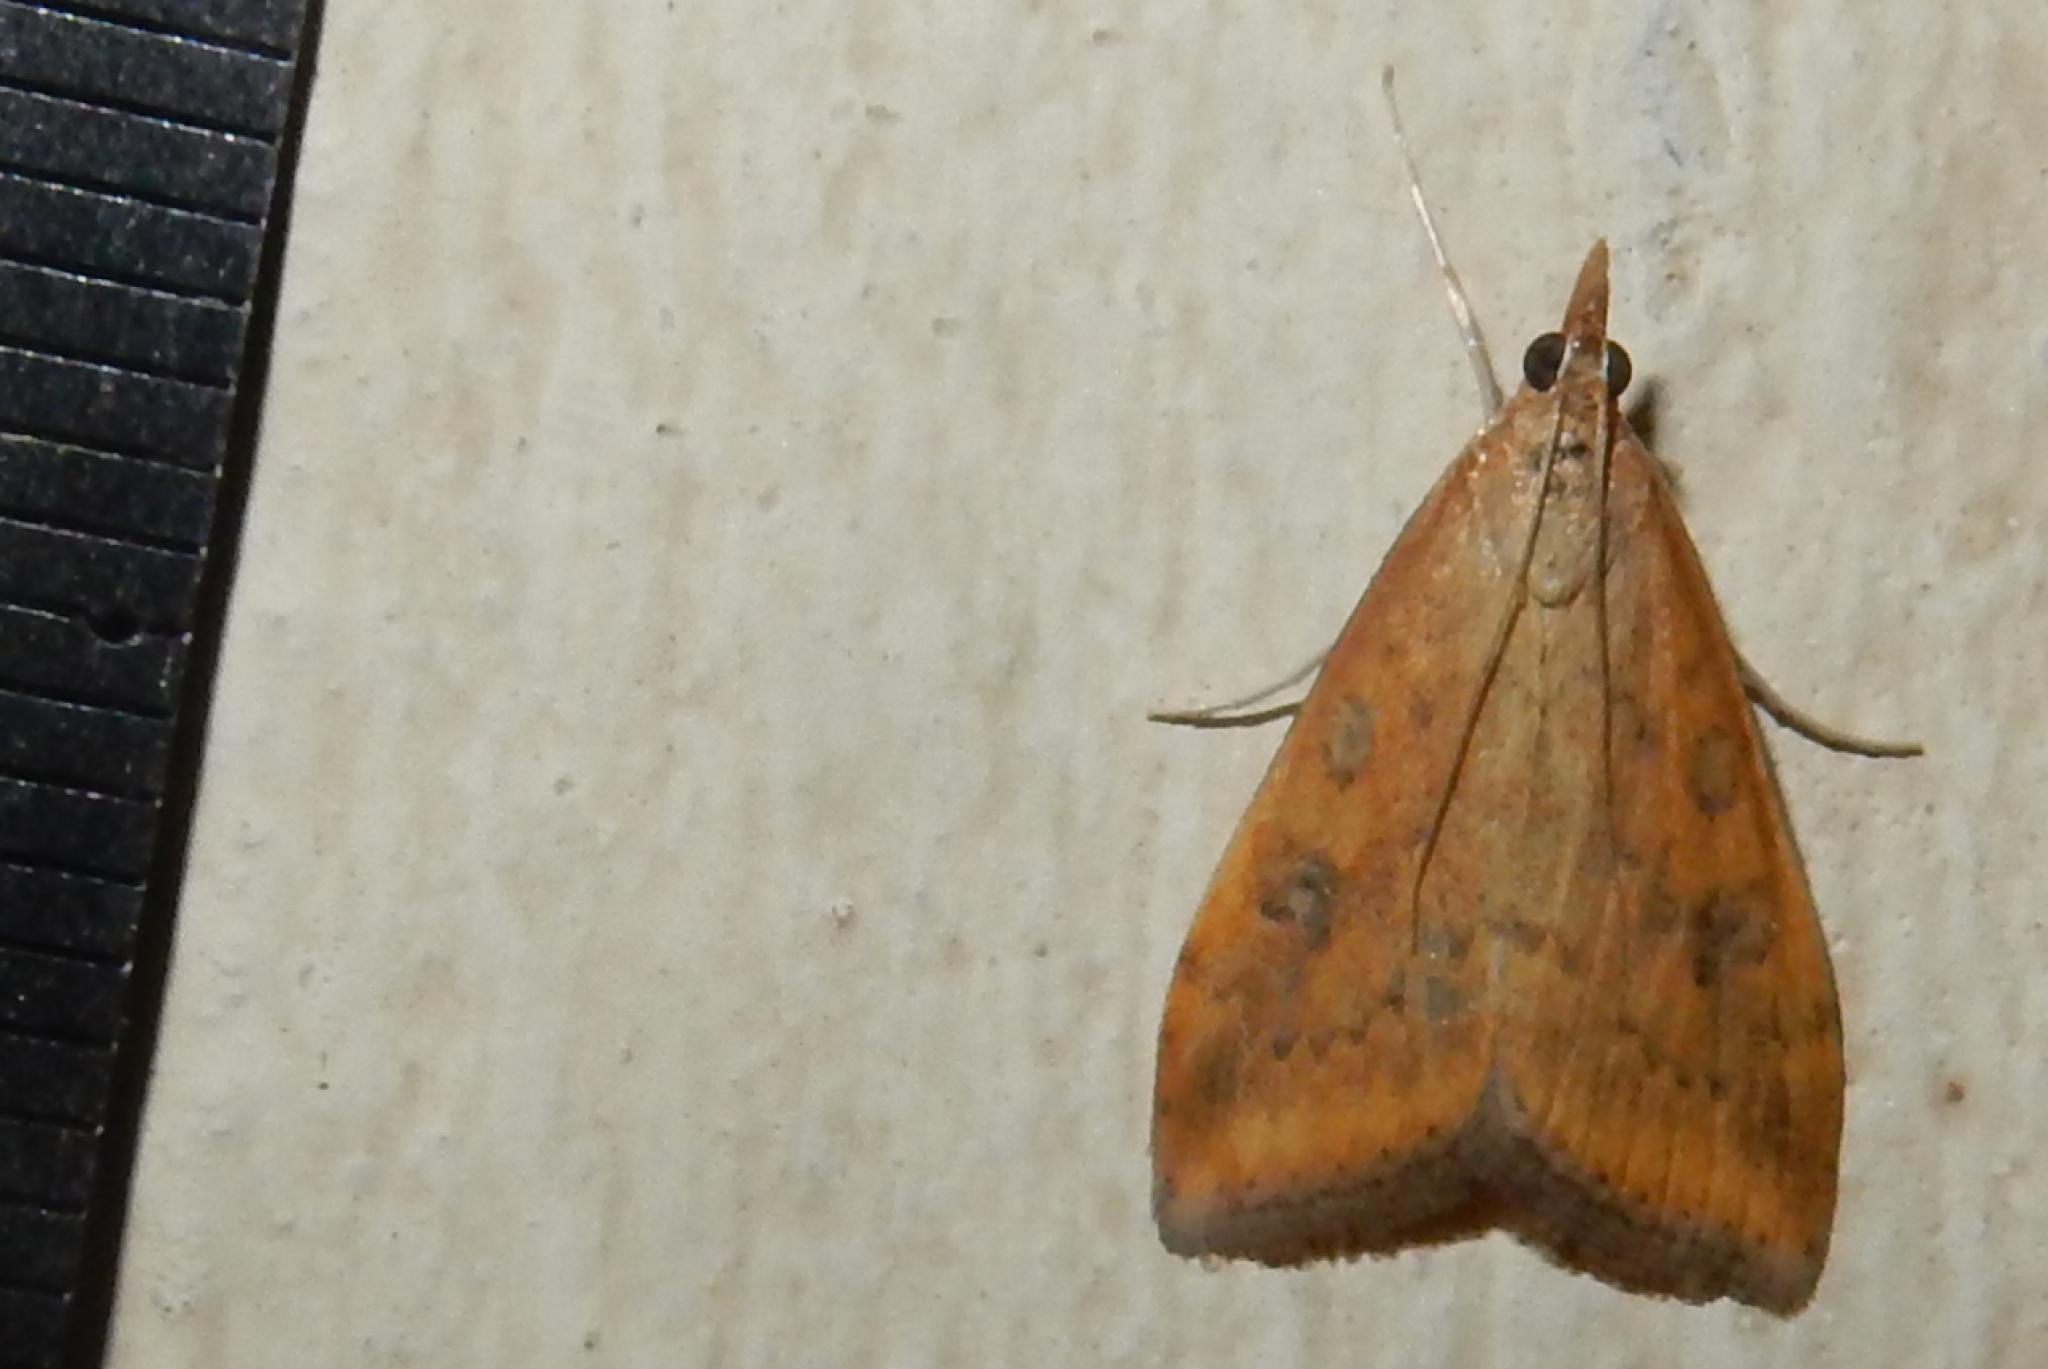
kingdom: Animalia
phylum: Arthropoda
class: Insecta
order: Lepidoptera
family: Crambidae
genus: Udea
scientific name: Udea ferrugalis
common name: Rusty dot
